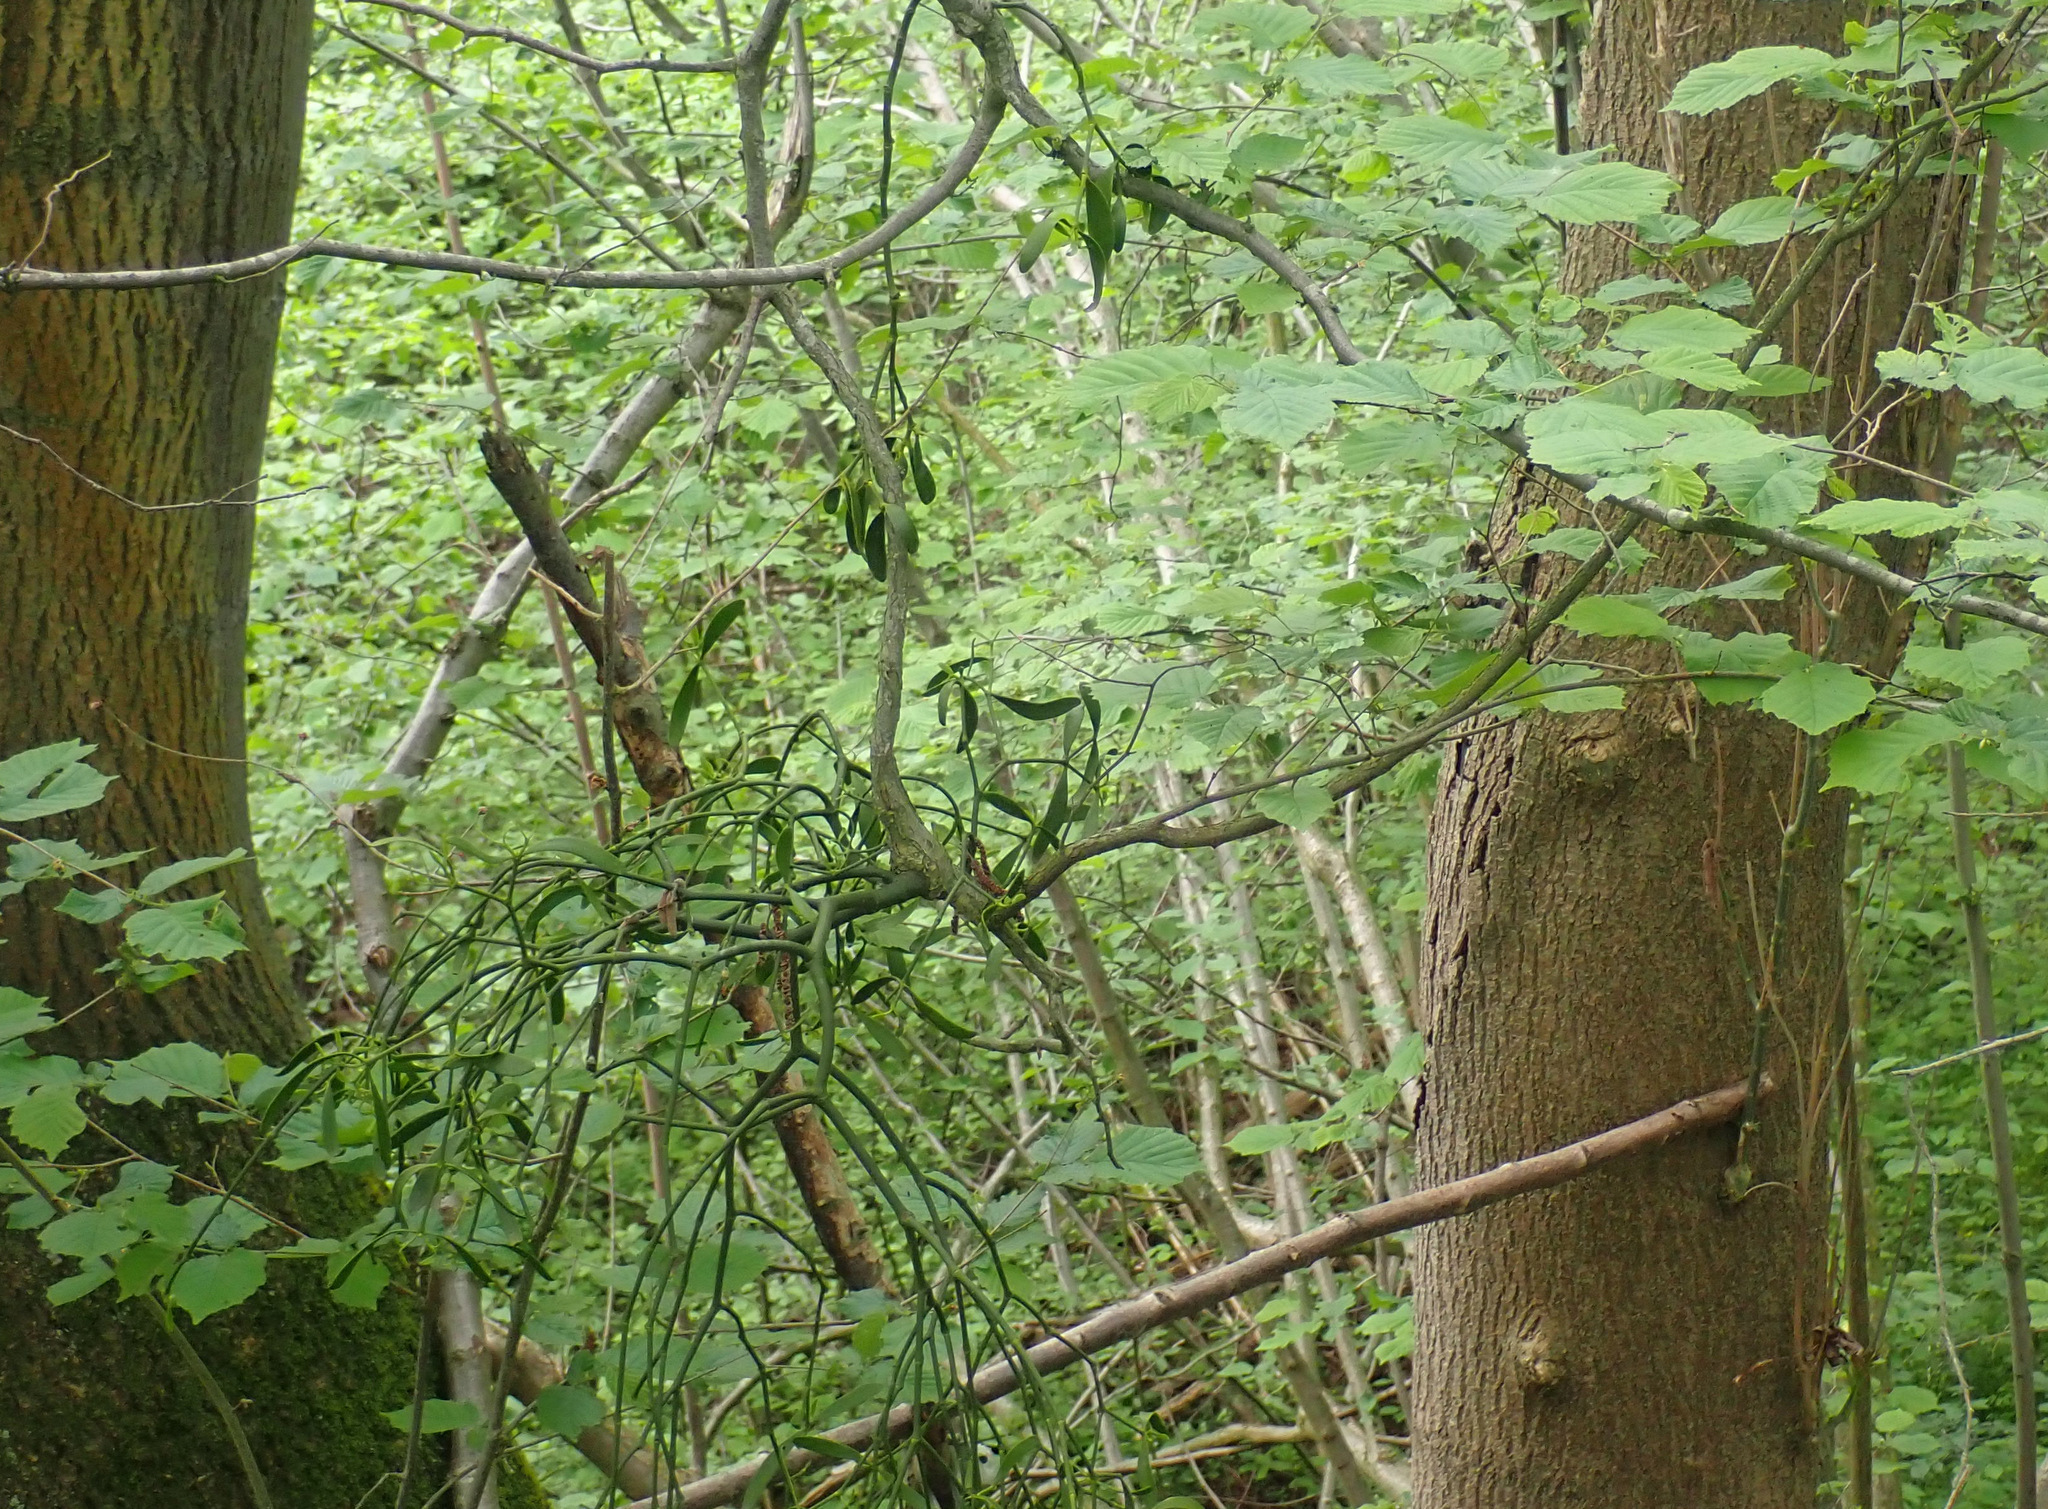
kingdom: Plantae
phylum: Tracheophyta
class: Magnoliopsida
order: Santalales
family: Viscaceae
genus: Viscum
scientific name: Viscum album
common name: Mistletoe
